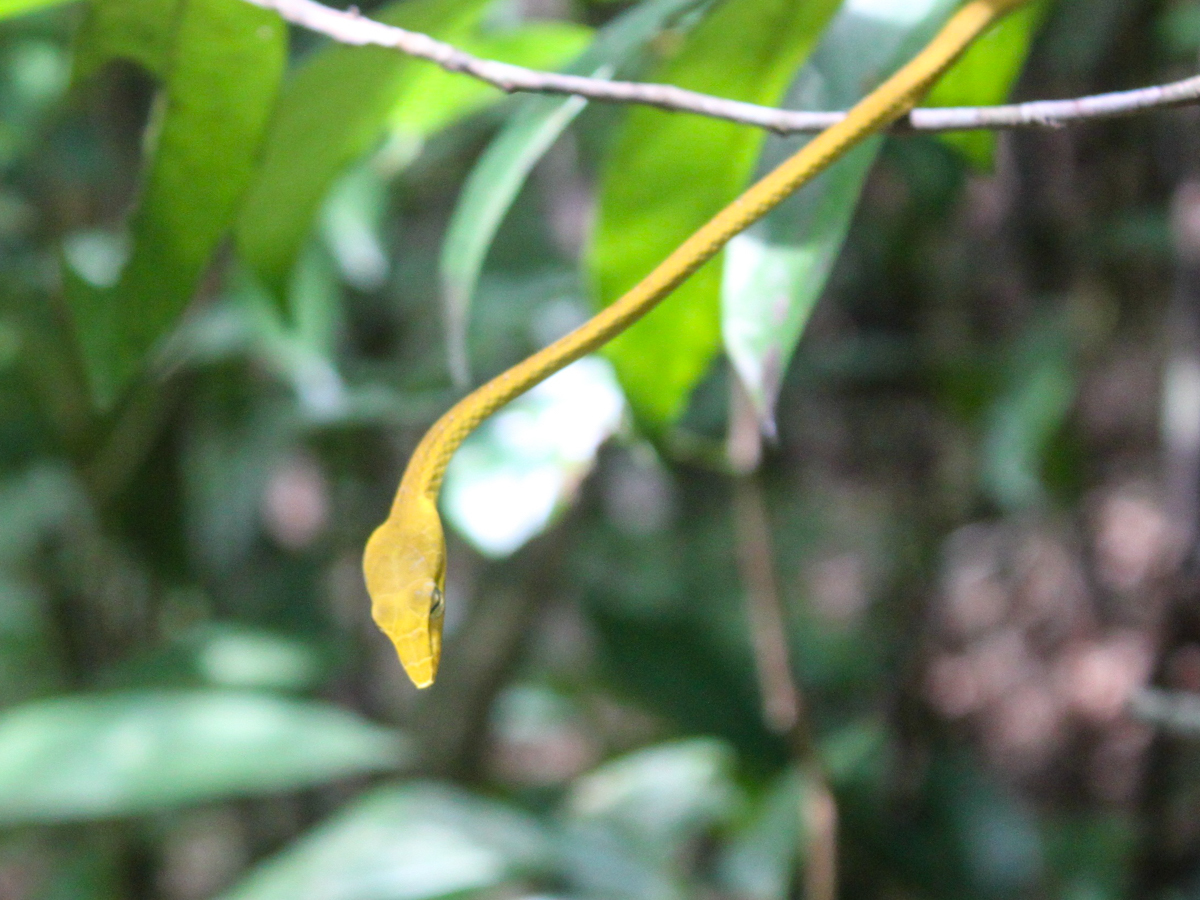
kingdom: Animalia
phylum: Chordata
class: Squamata
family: Colubridae
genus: Ahaetulla
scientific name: Ahaetulla prasina
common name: Oriental whip snake
